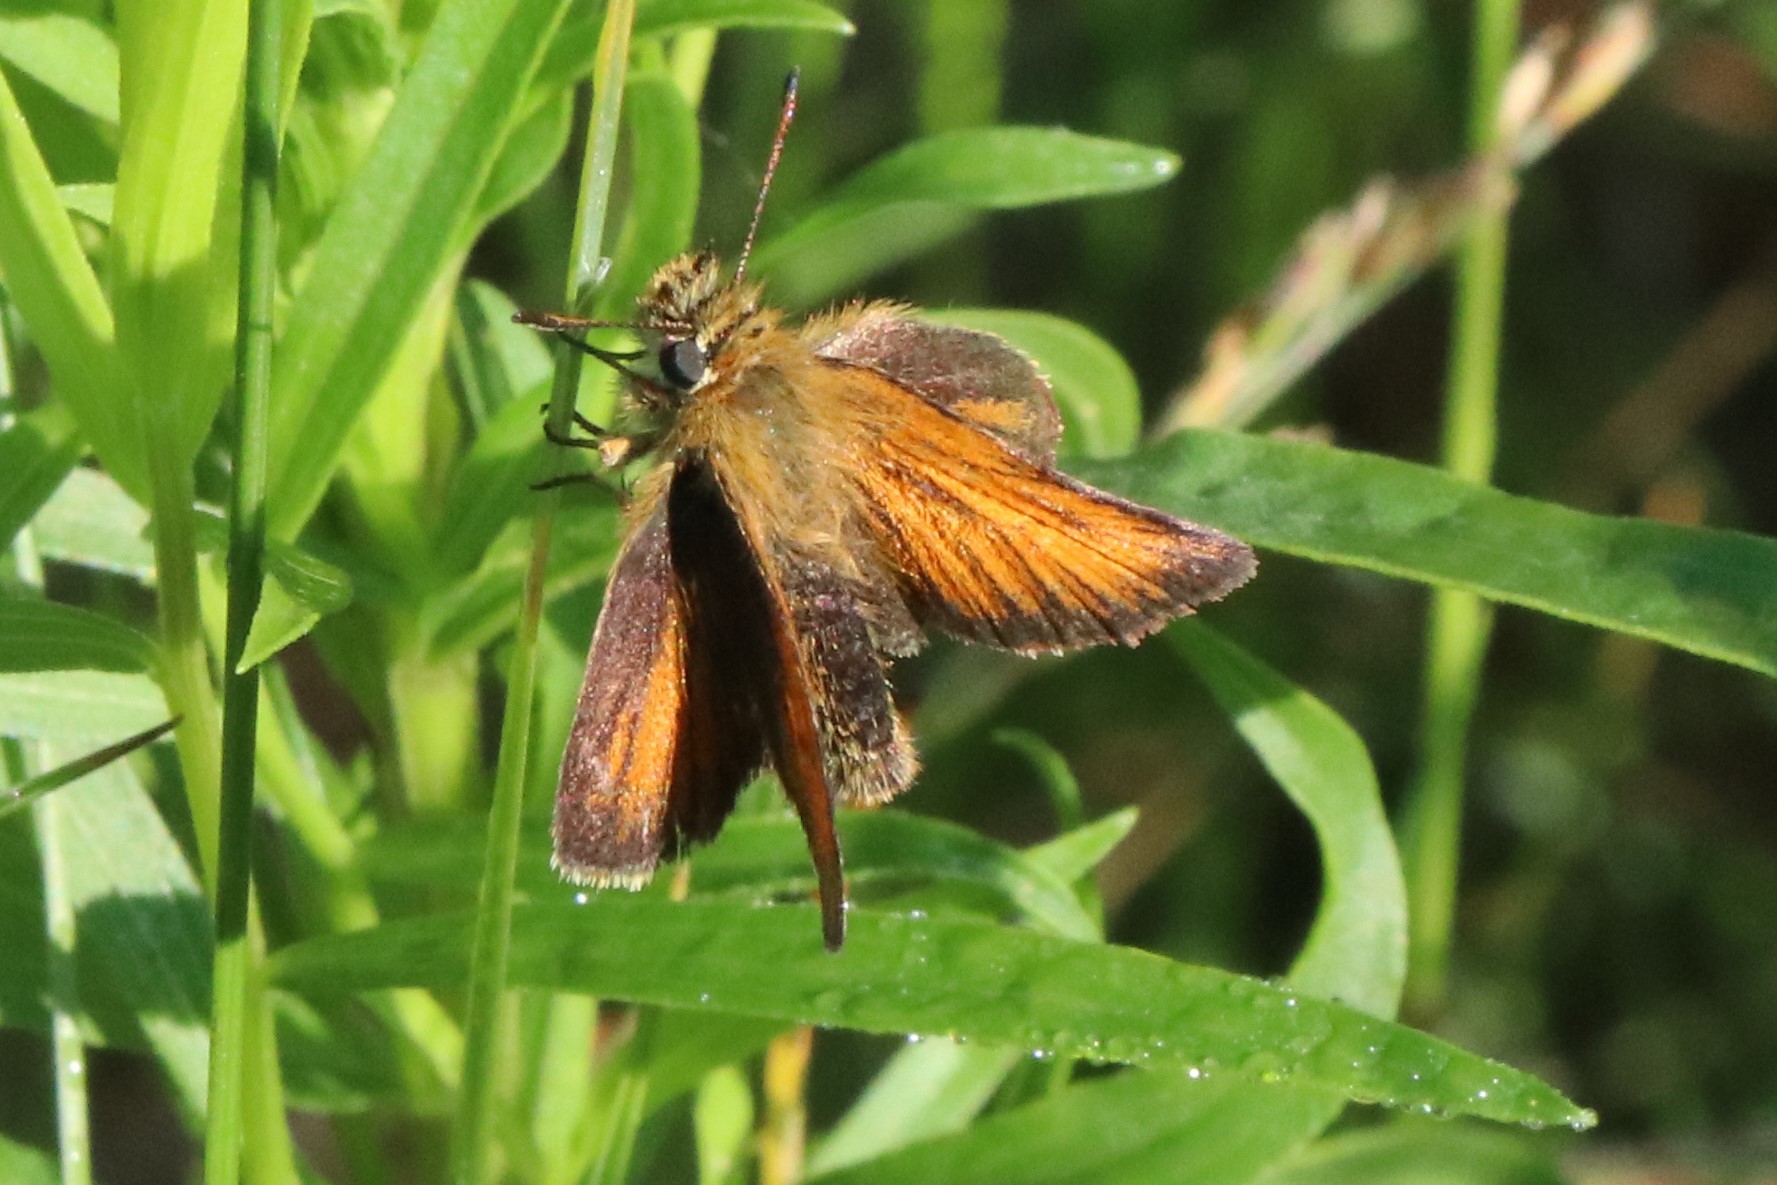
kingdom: Animalia
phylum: Arthropoda
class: Insecta
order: Lepidoptera
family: Hesperiidae
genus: Thymelicus
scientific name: Thymelicus lineola
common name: Essex skipper
